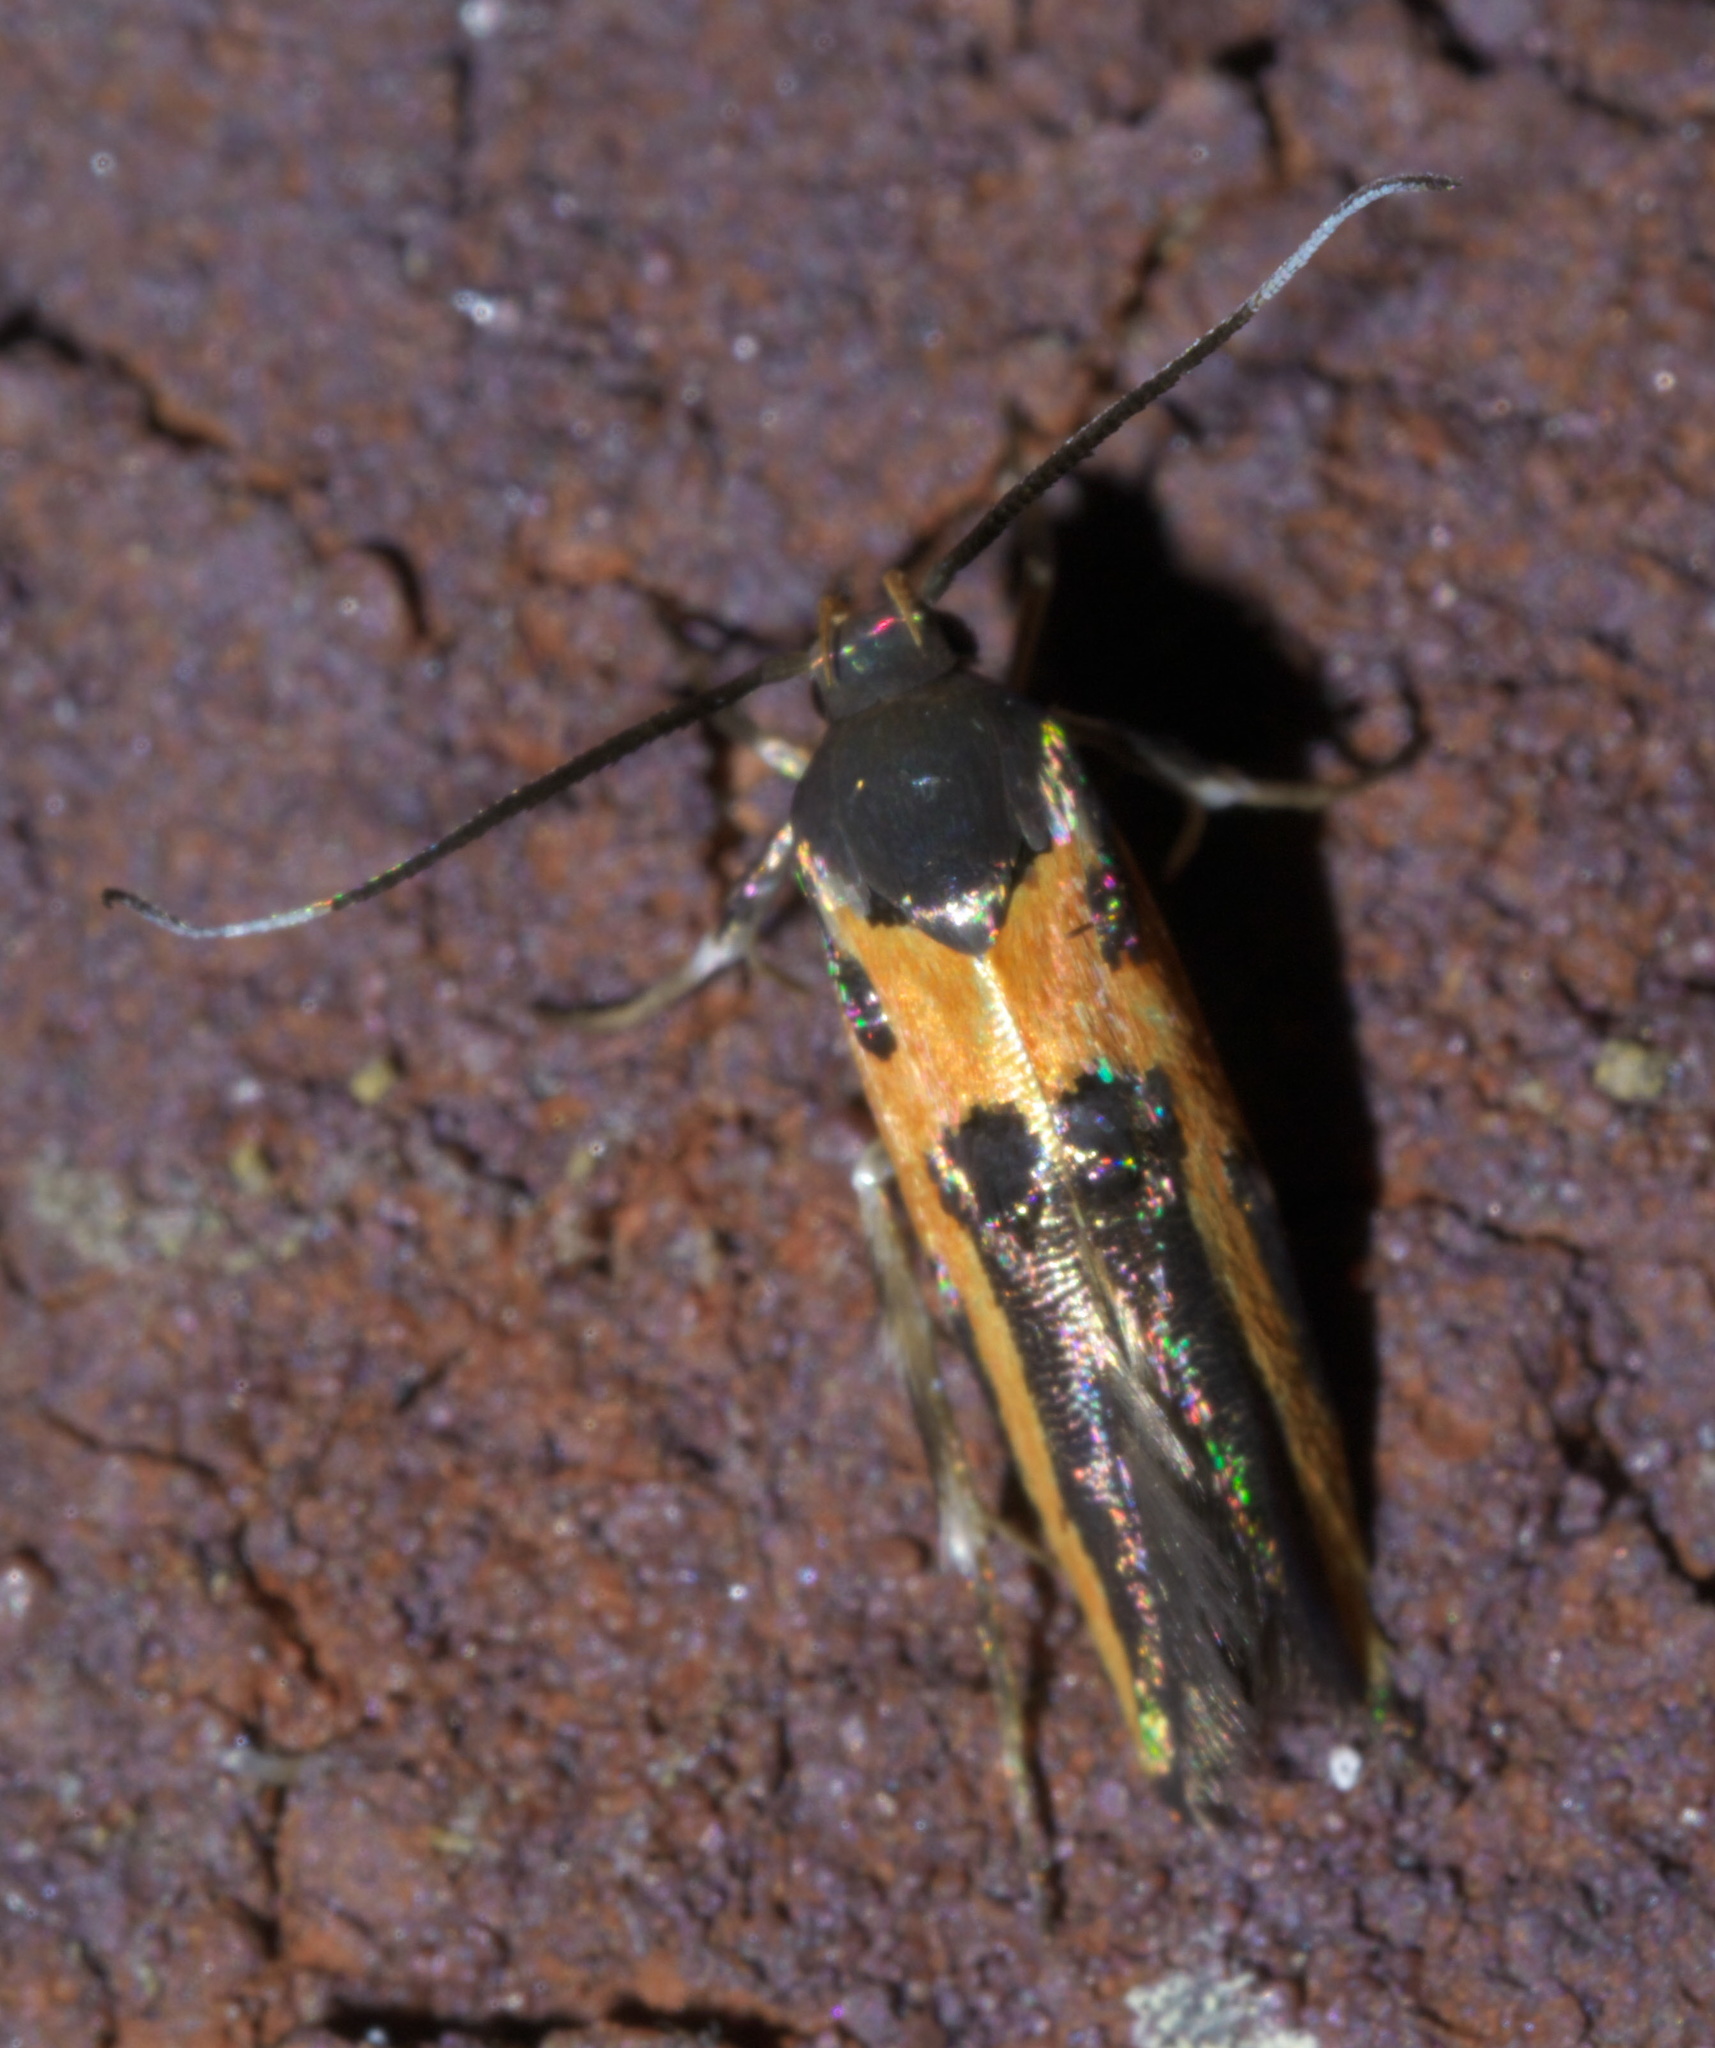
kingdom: Animalia
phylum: Arthropoda
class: Insecta
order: Lepidoptera
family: Cosmopterigidae
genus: Euclemensia
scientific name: Euclemensia bassettella
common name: Kermes scale moth
